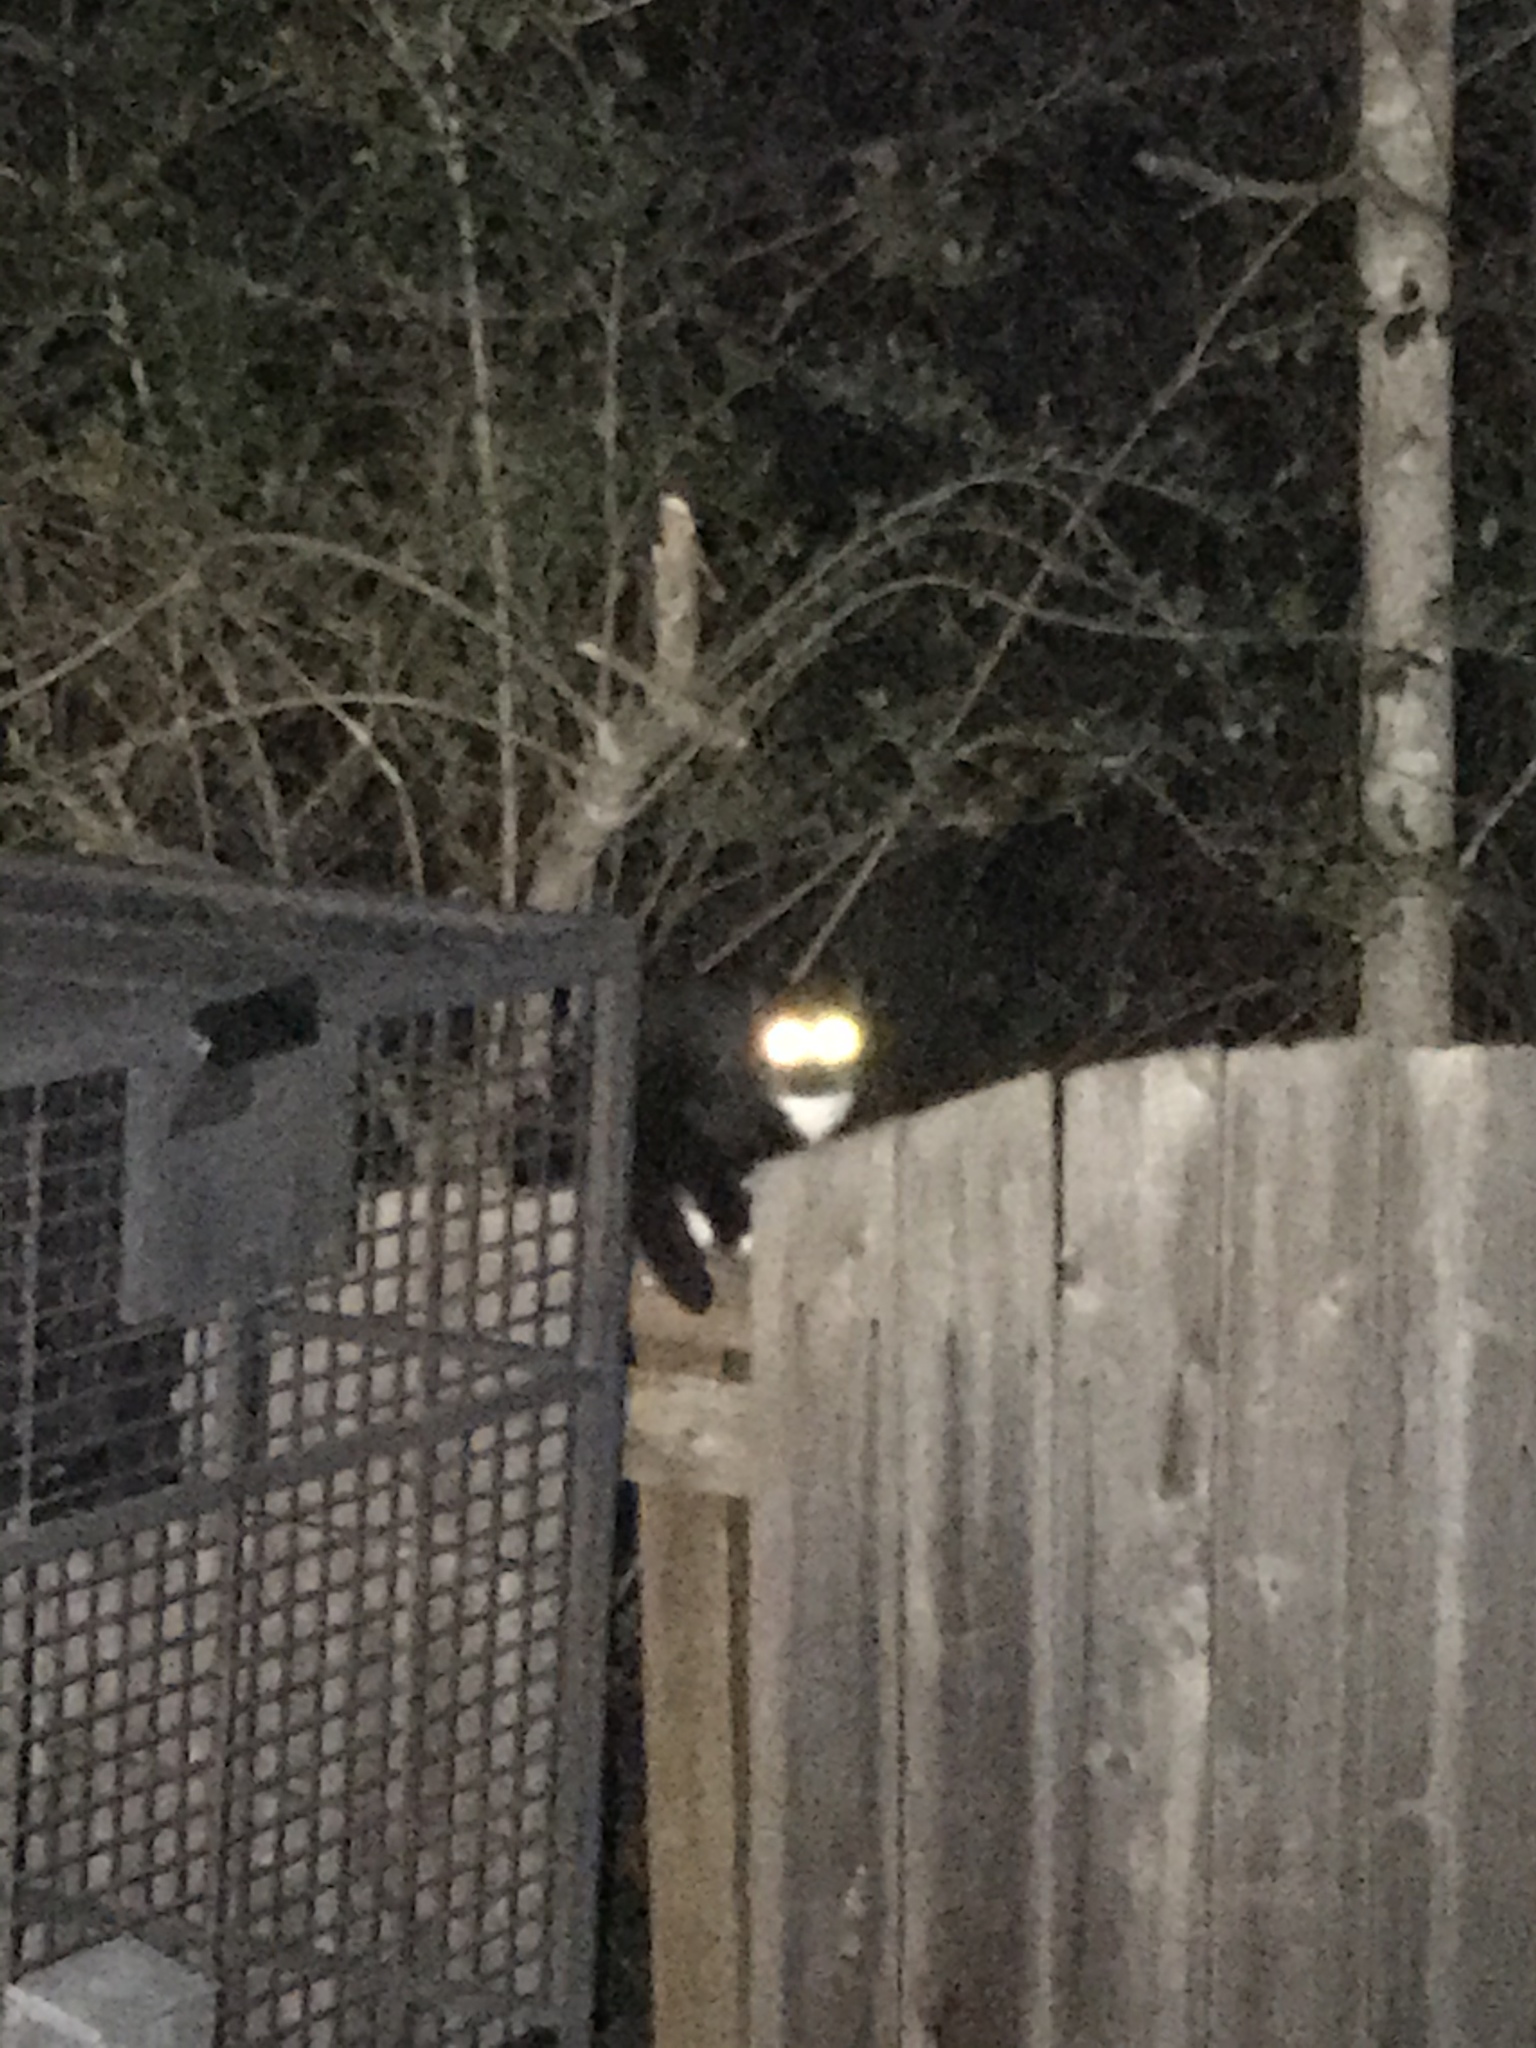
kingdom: Animalia
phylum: Chordata
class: Mammalia
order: Carnivora
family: Felidae
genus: Felis
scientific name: Felis catus
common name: Domestic cat
